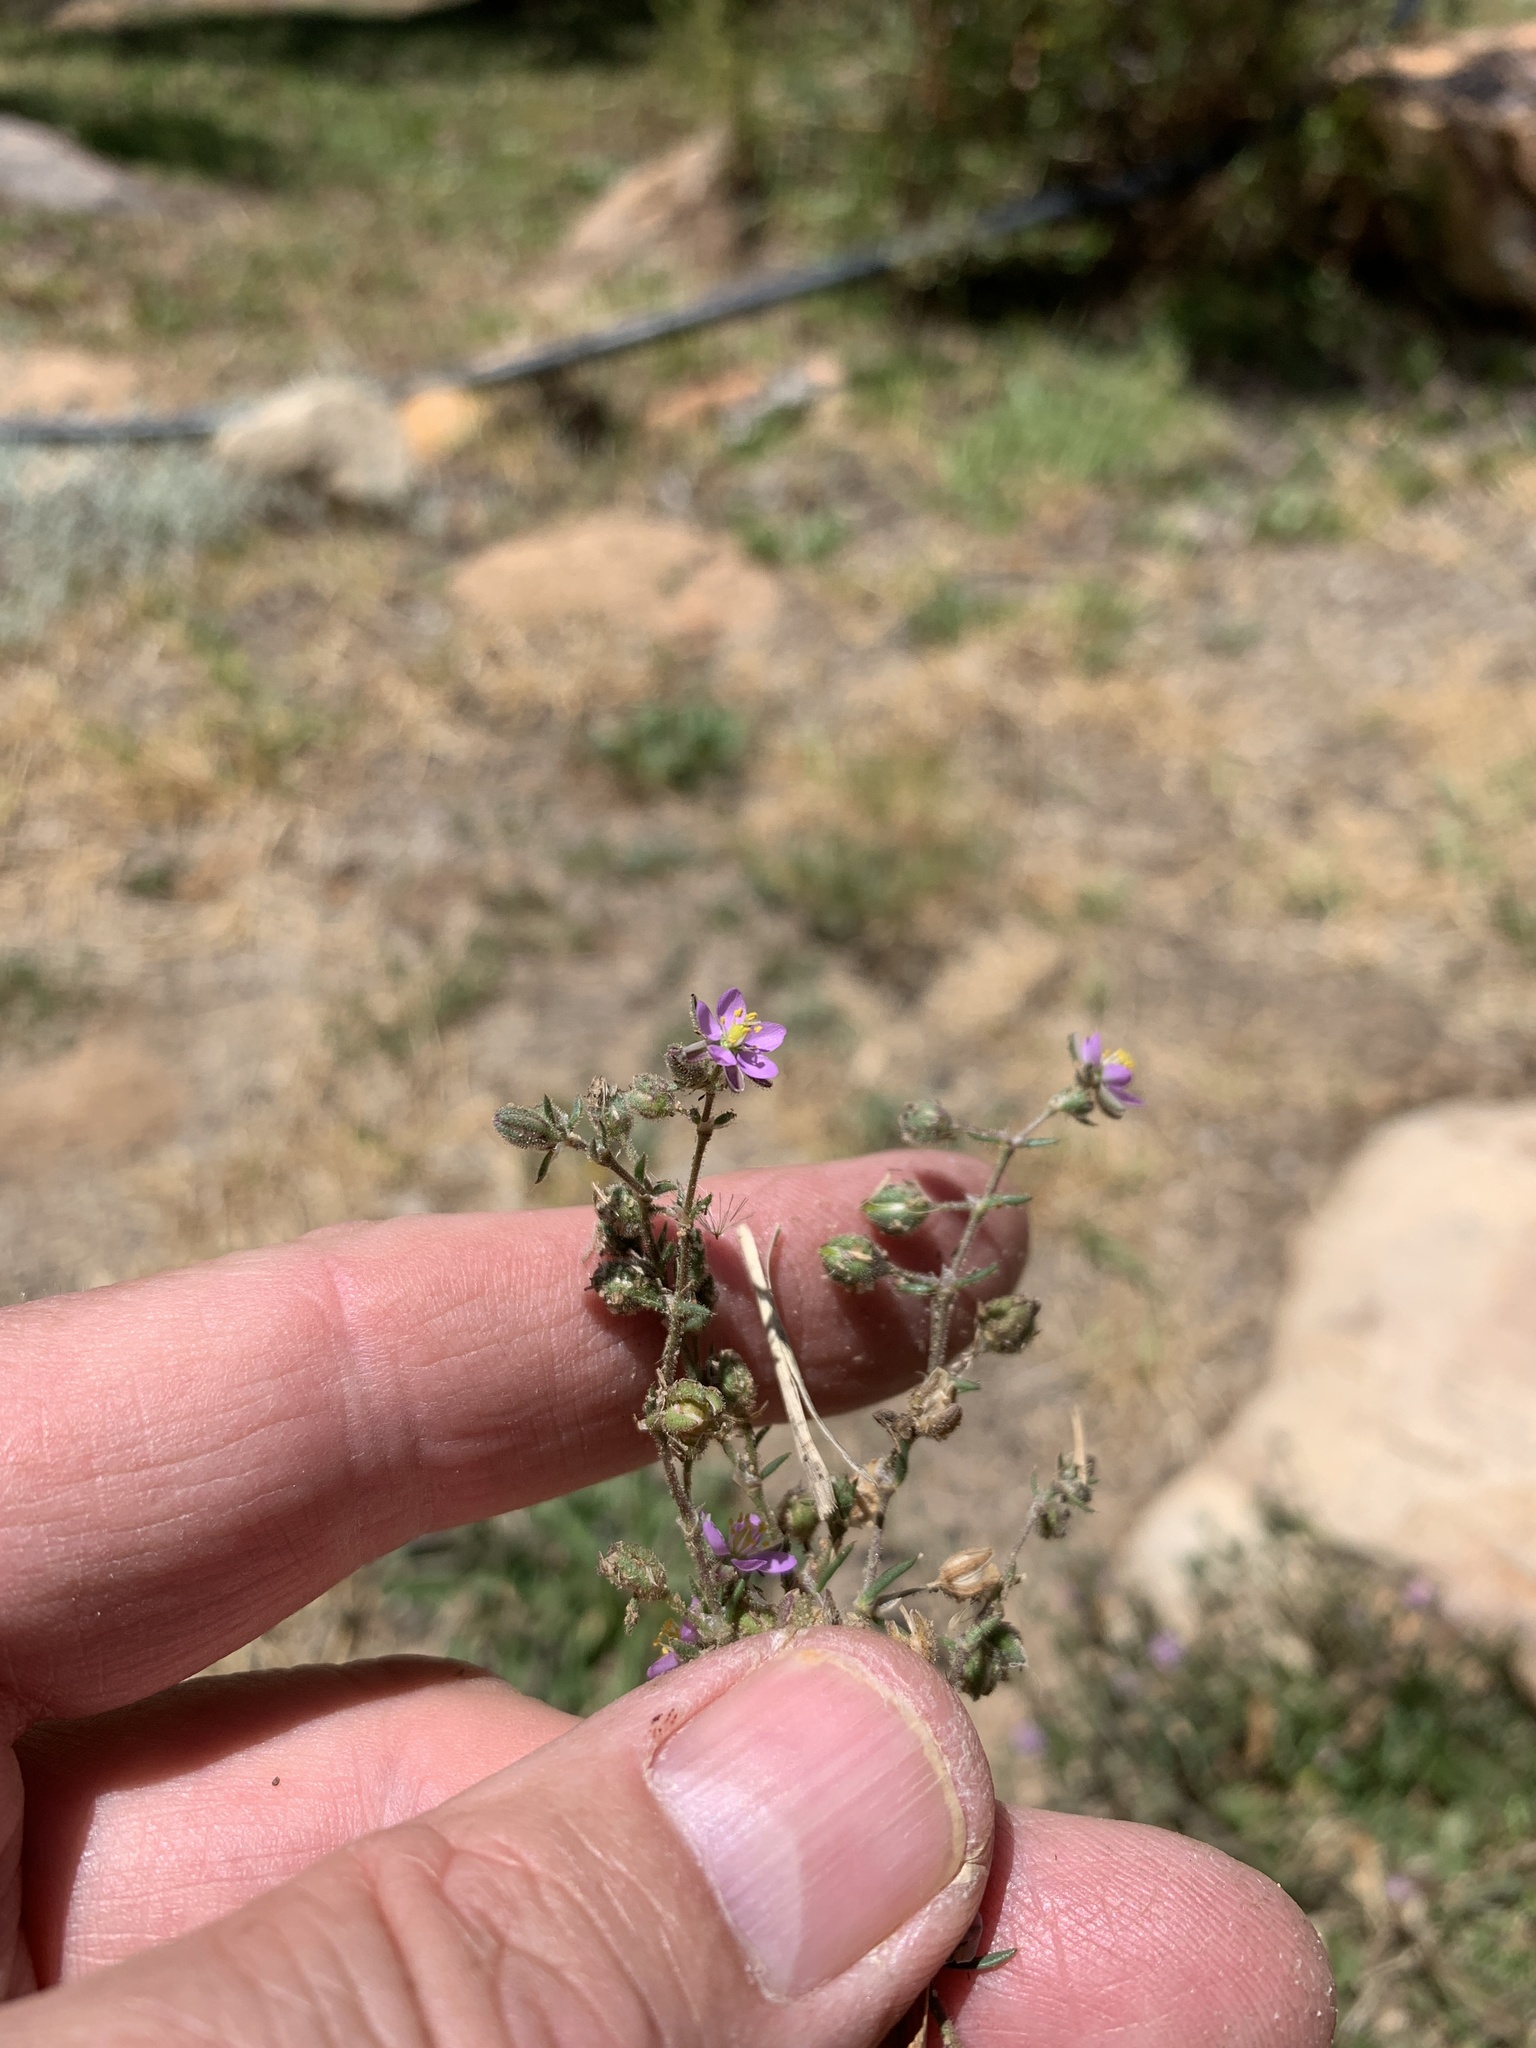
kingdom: Plantae
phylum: Tracheophyta
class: Magnoliopsida
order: Caryophyllales
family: Caryophyllaceae
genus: Spergularia
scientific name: Spergularia rubra
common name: Red sand-spurrey
